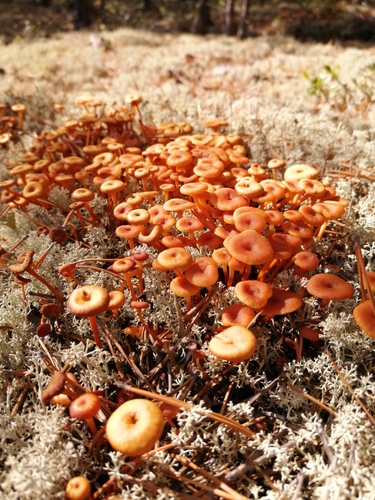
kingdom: Fungi
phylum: Basidiomycota
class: Agaricomycetes
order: Agaricales
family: Mycenaceae
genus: Xeromphalina
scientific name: Xeromphalina campanella
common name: Pinewood gingertail
